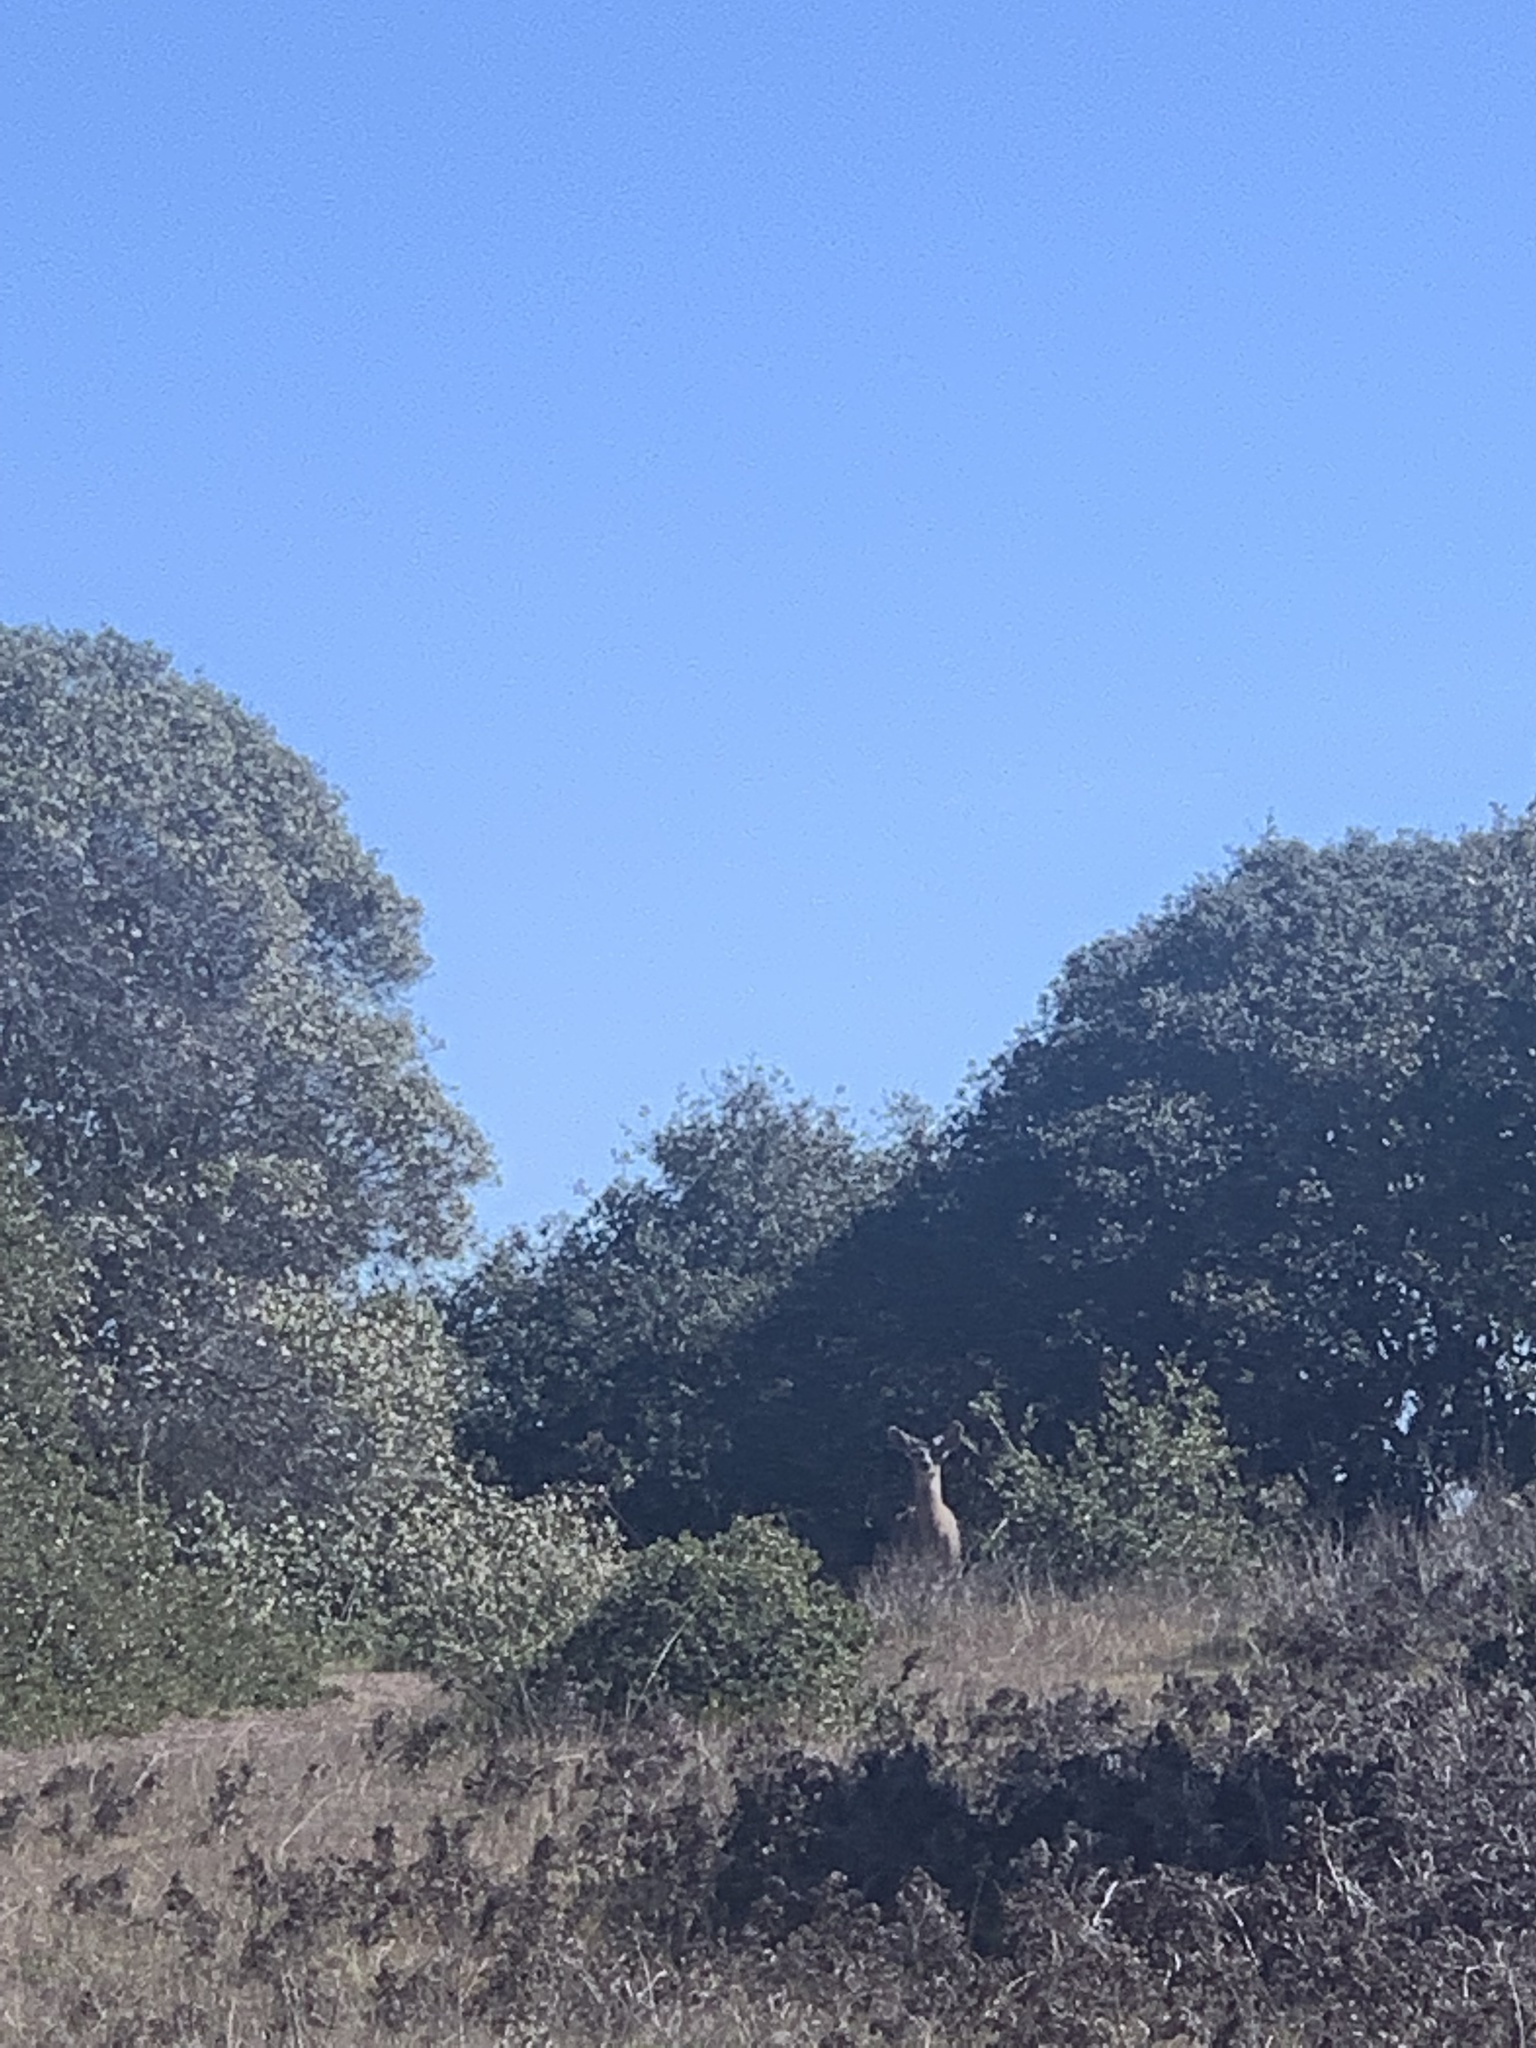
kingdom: Animalia
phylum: Chordata
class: Mammalia
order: Artiodactyla
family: Cervidae
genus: Odocoileus
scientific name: Odocoileus hemionus
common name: Mule deer
